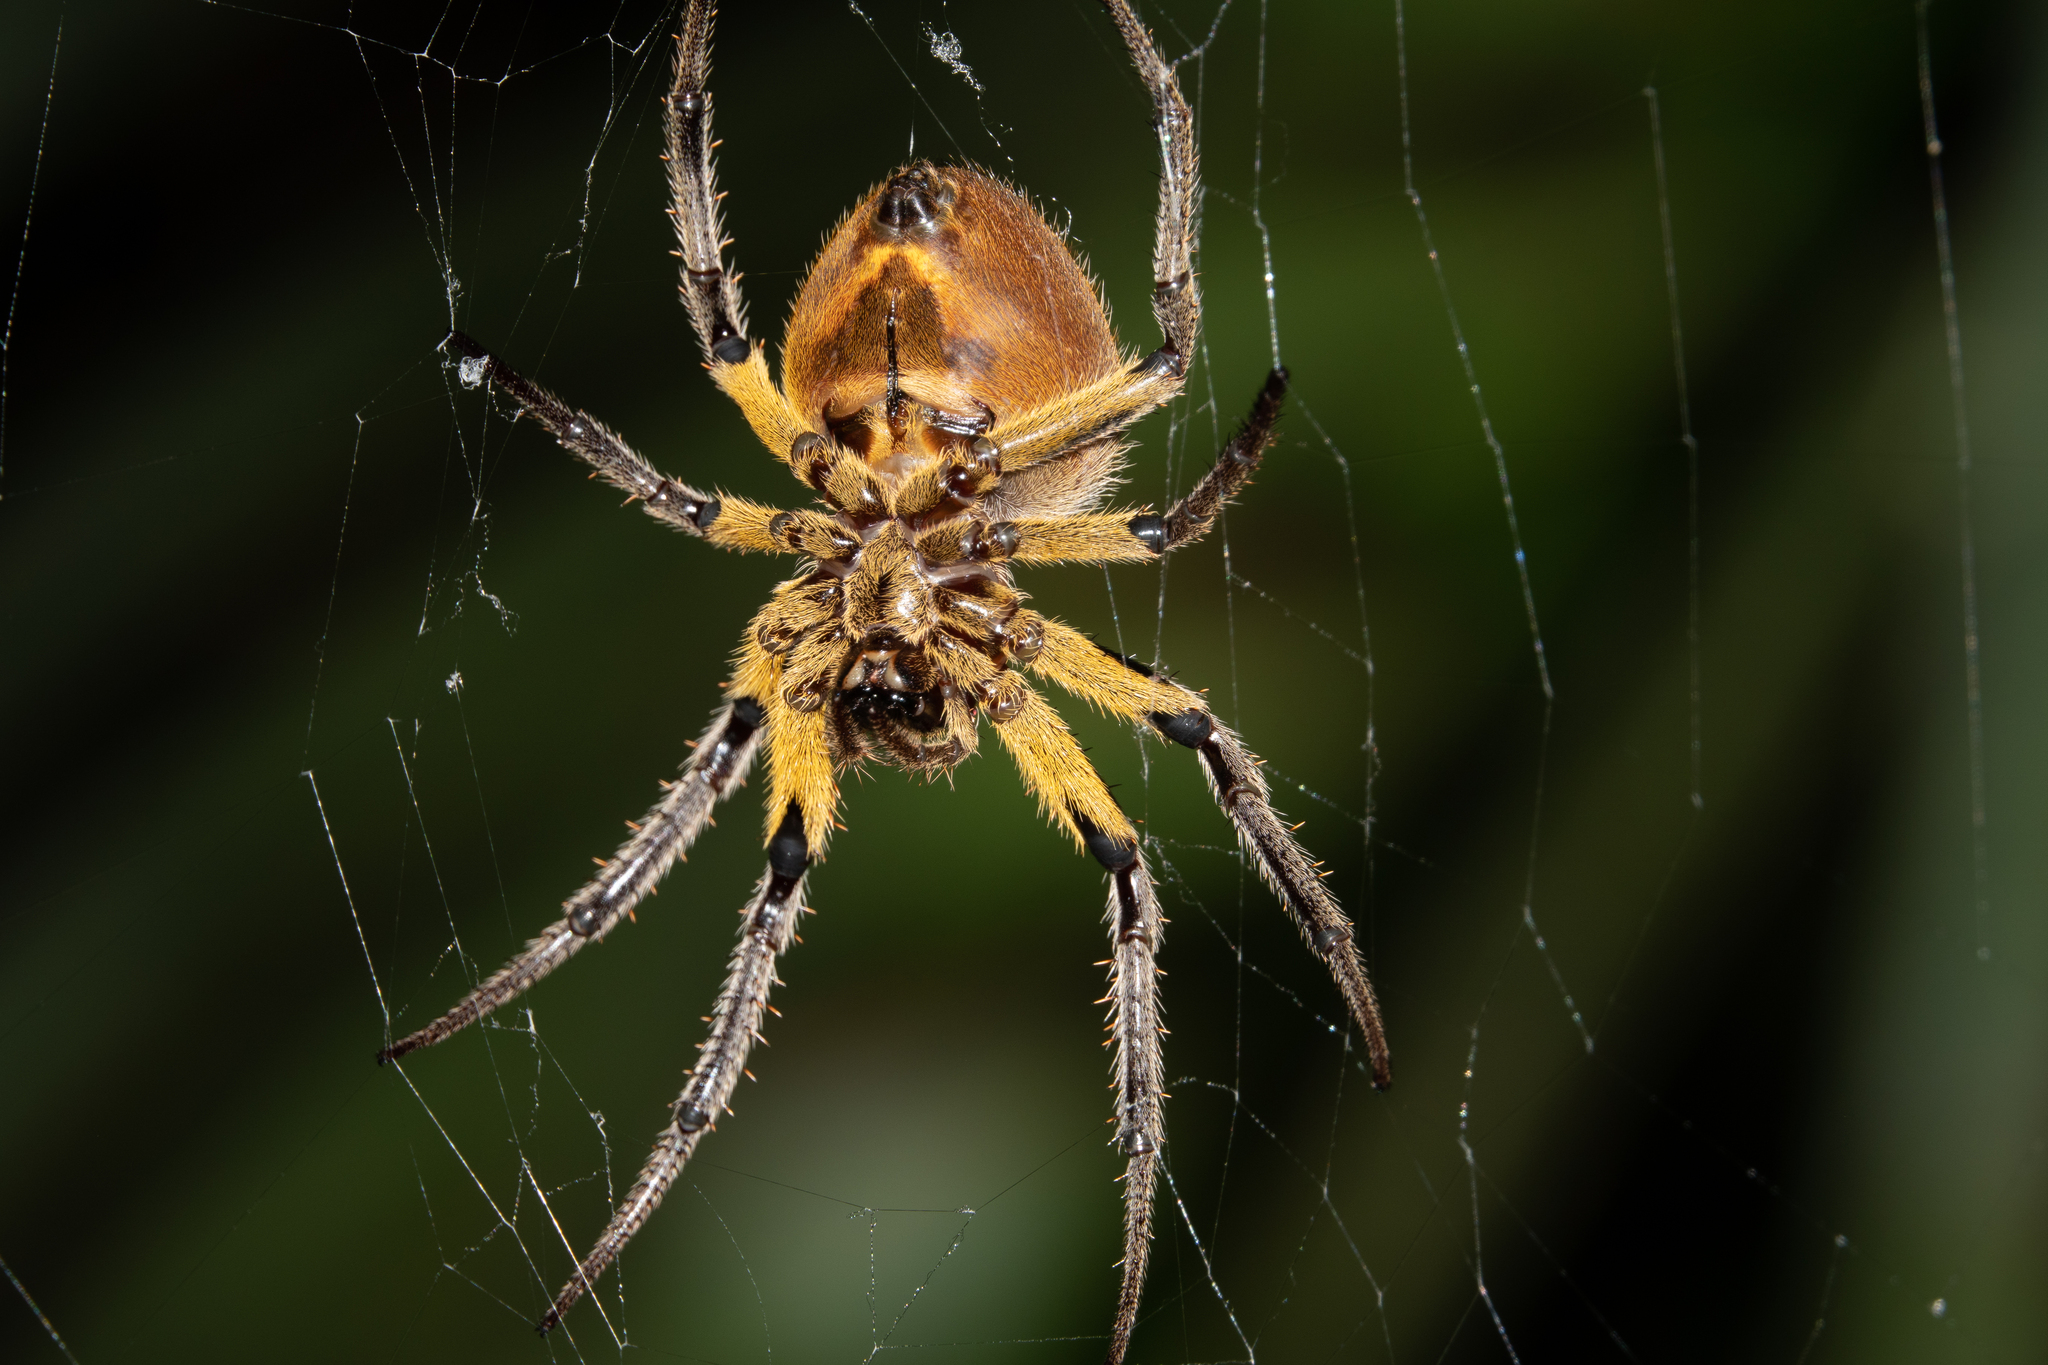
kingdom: Animalia
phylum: Arthropoda
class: Arachnida
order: Araneae
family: Araneidae
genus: Eriophora
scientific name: Eriophora fuliginea
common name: Orb weavers
